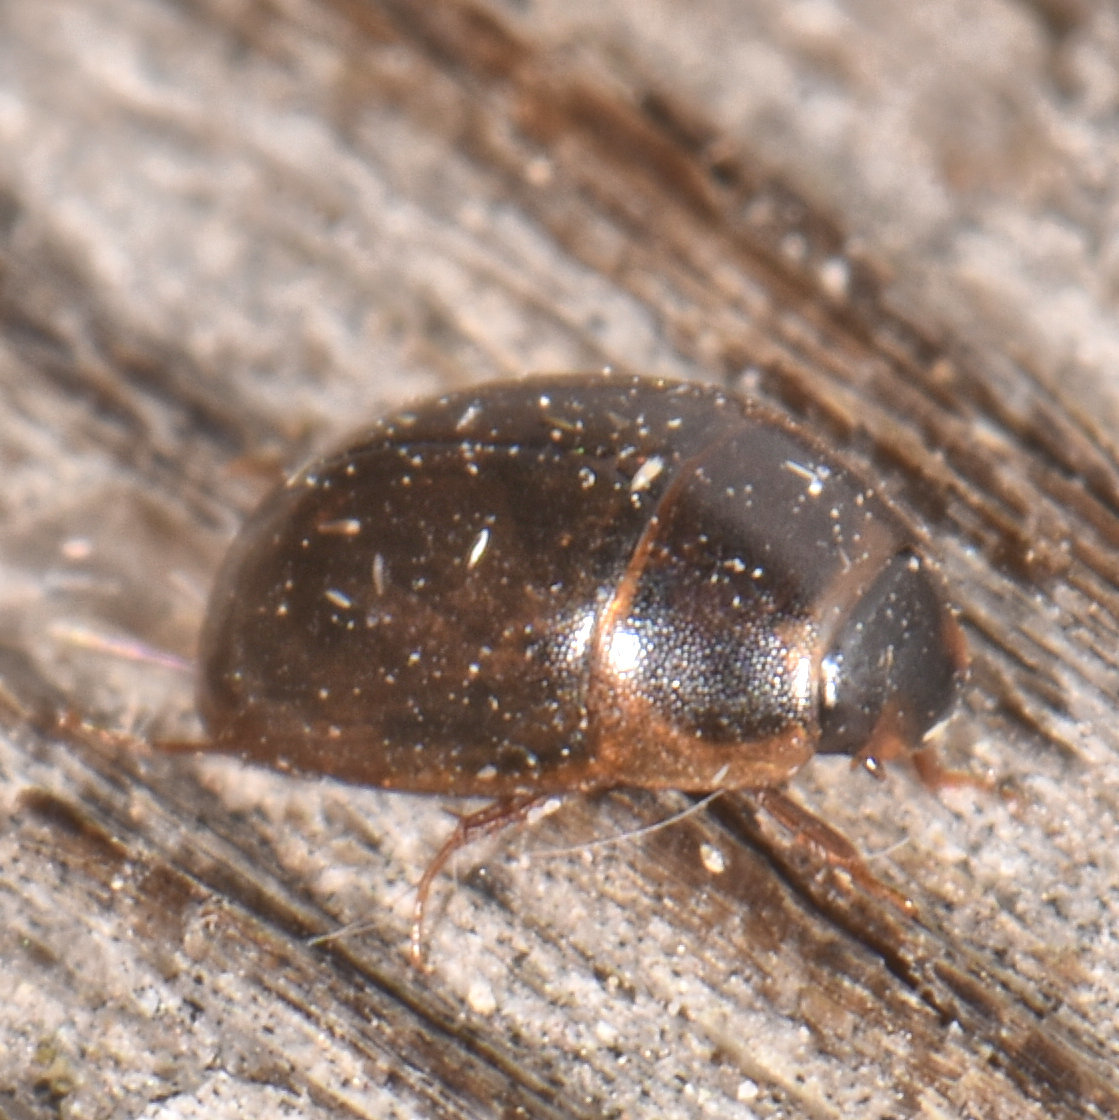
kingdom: Animalia
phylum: Arthropoda
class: Insecta
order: Coleoptera
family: Hydrophilidae
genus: Enochrus
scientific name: Enochrus
